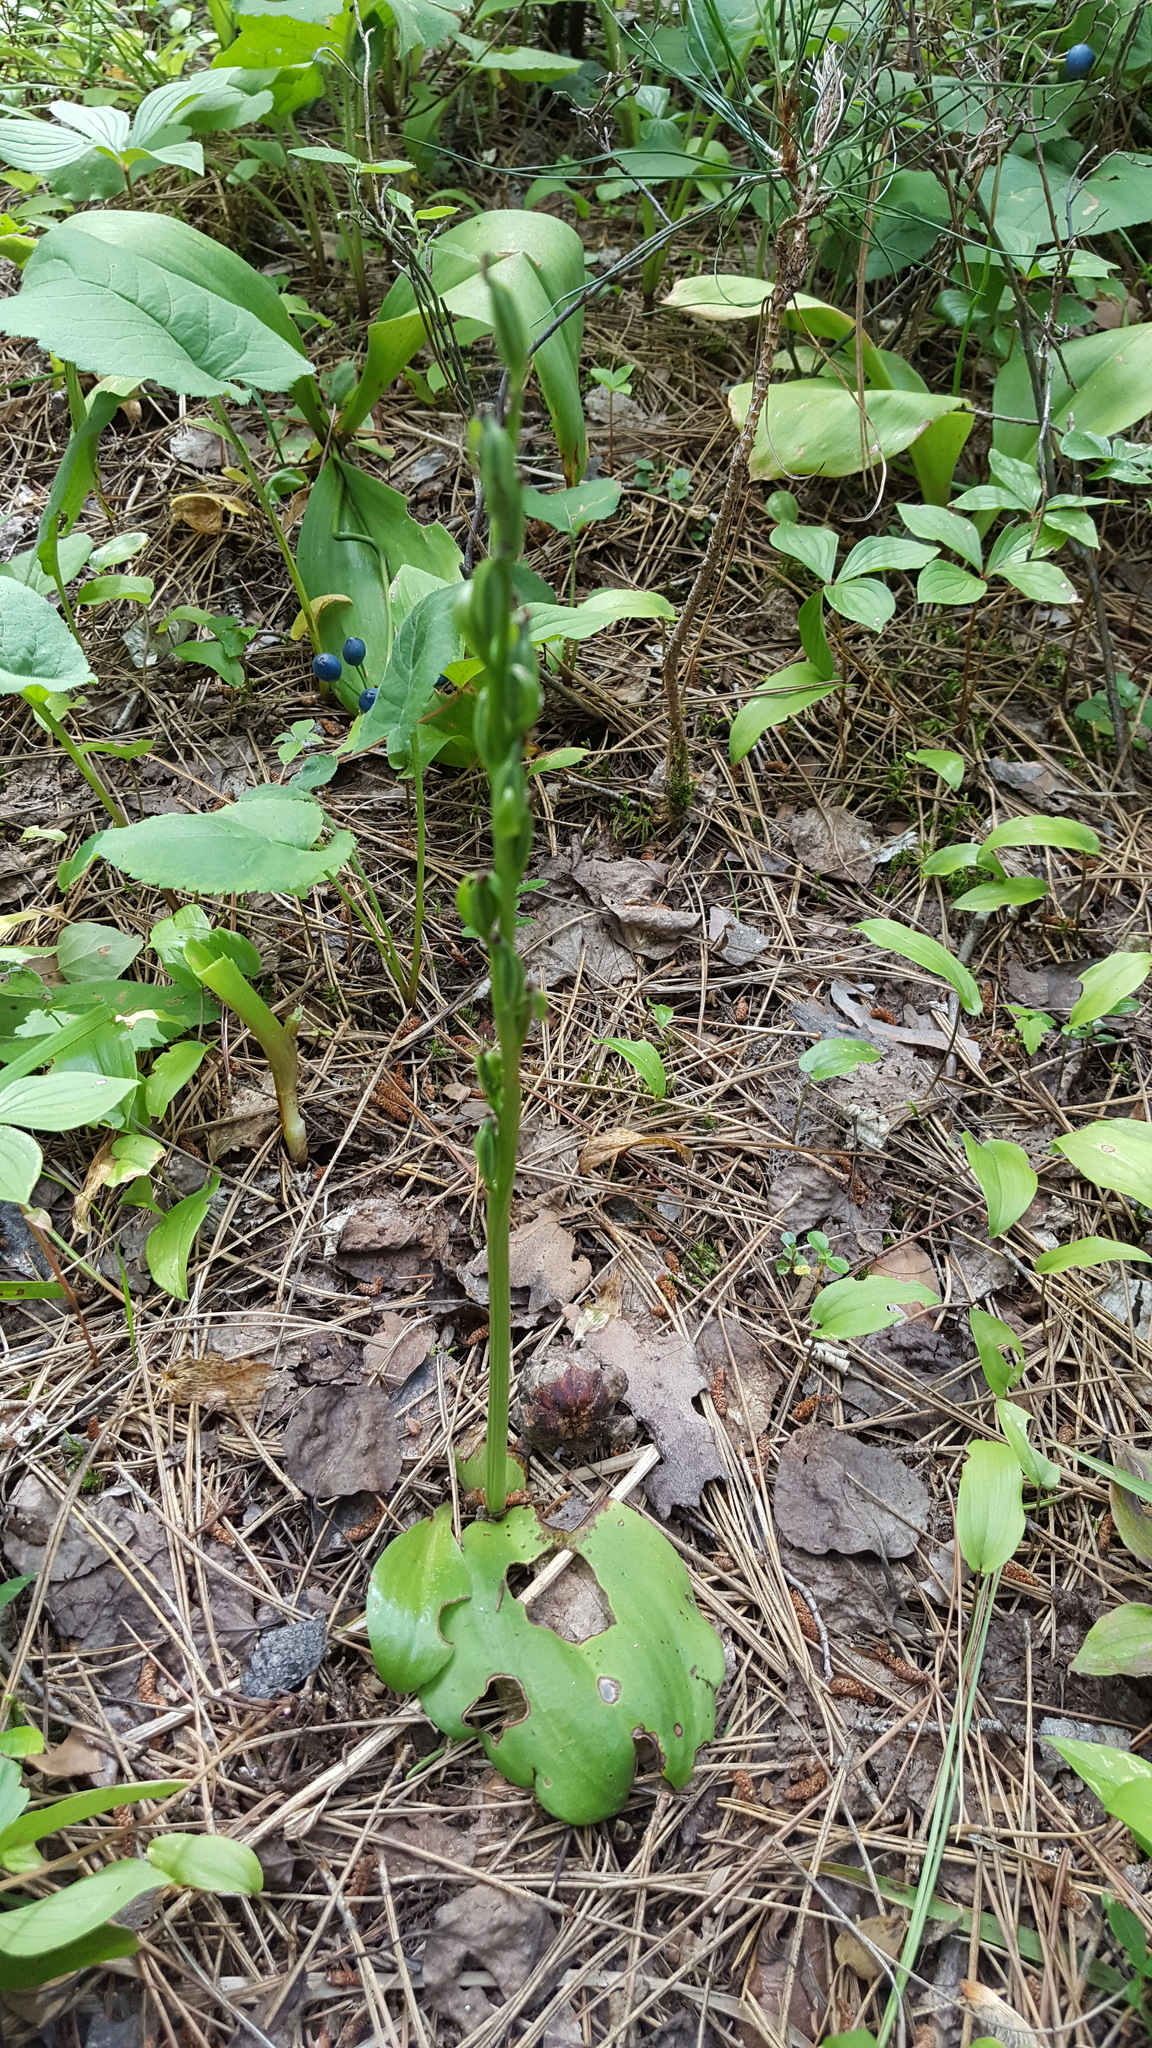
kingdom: Plantae
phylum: Tracheophyta
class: Liliopsida
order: Asparagales
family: Orchidaceae
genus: Platanthera
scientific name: Platanthera hookeri
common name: Hooker's orchid
